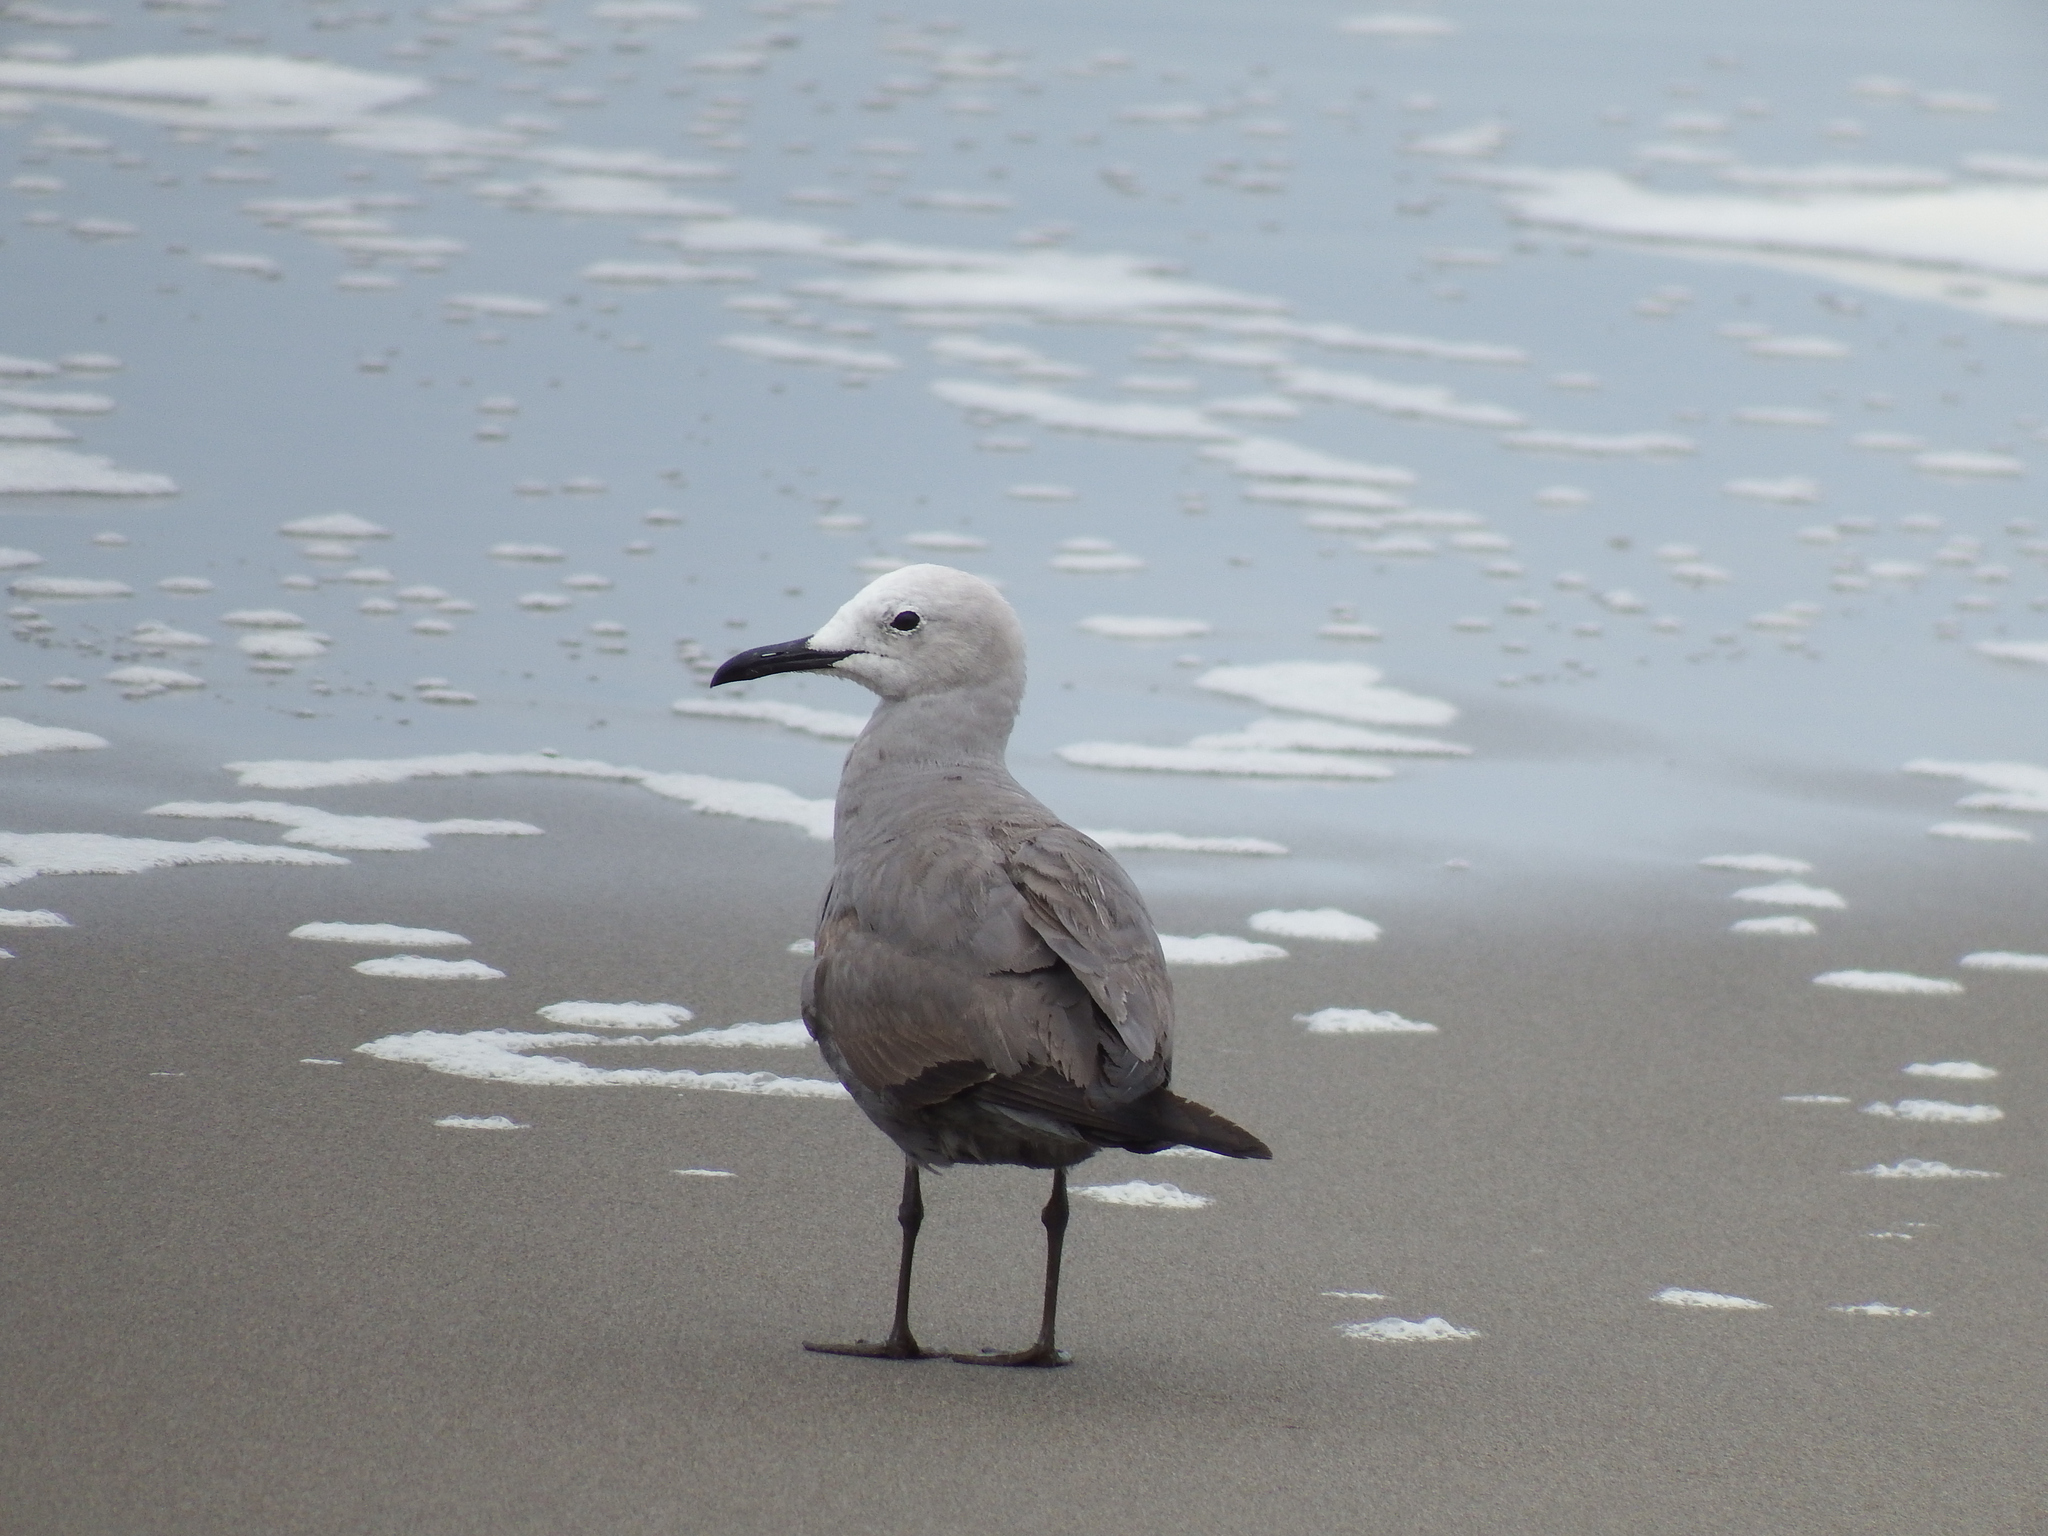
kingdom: Animalia
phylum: Chordata
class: Aves
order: Charadriiformes
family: Laridae
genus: Leucophaeus
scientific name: Leucophaeus modestus
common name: Gray gull
